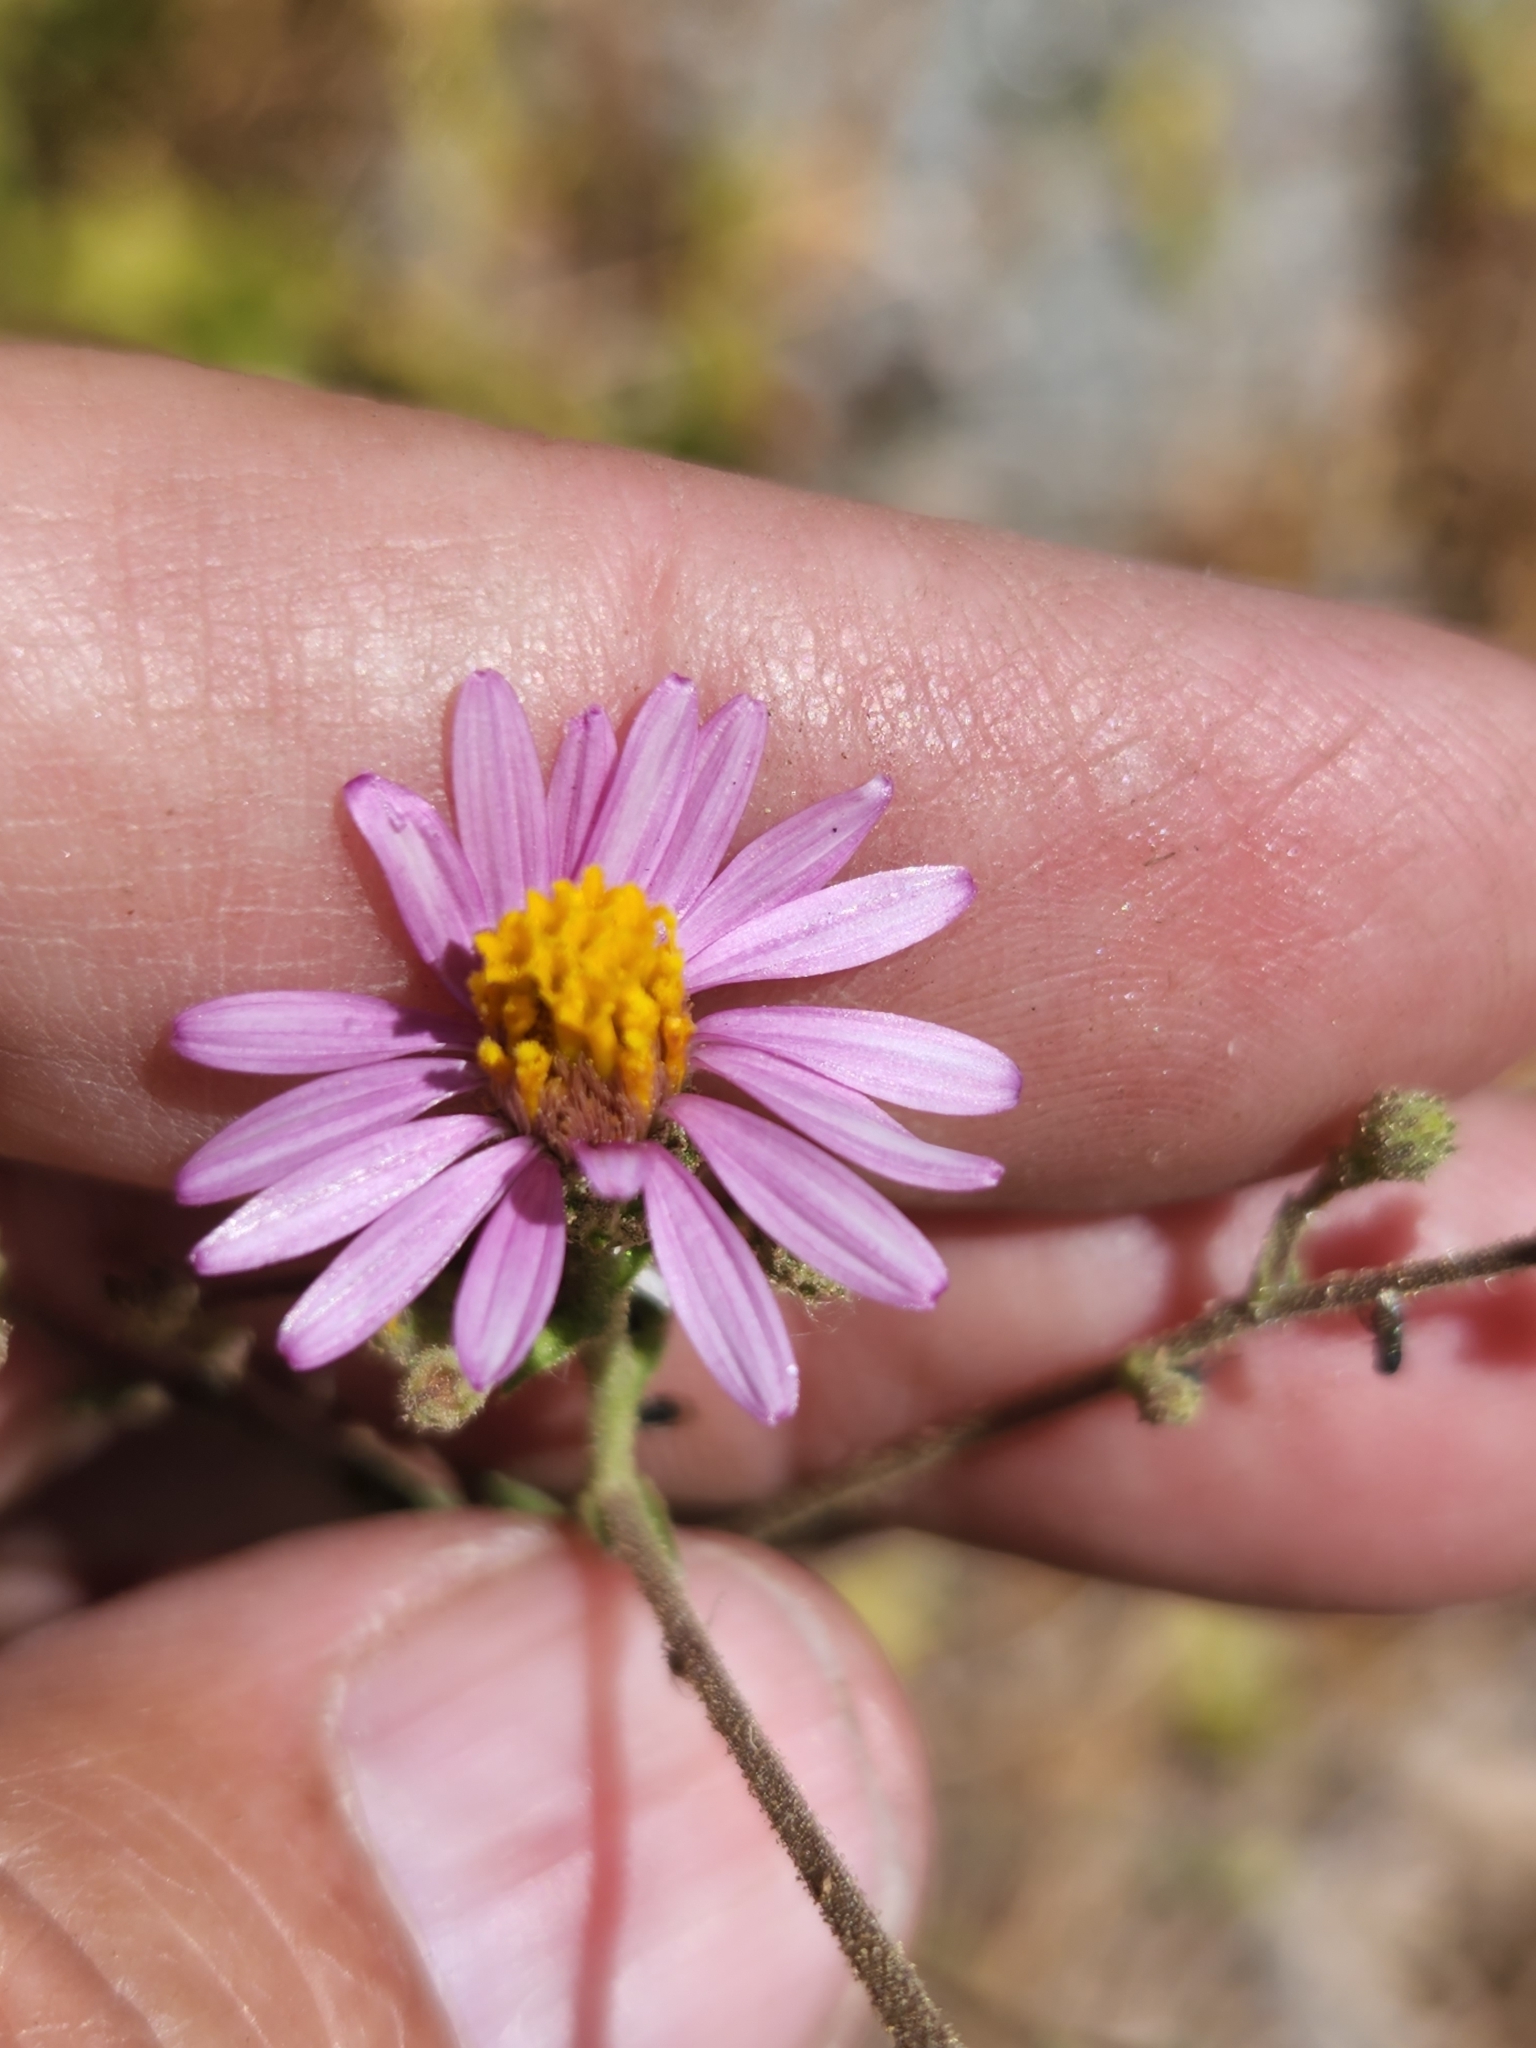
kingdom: Plantae
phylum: Tracheophyta
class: Magnoliopsida
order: Asterales
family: Asteraceae
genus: Corethrogyne
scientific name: Corethrogyne filaginifolia
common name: Sand-aster
